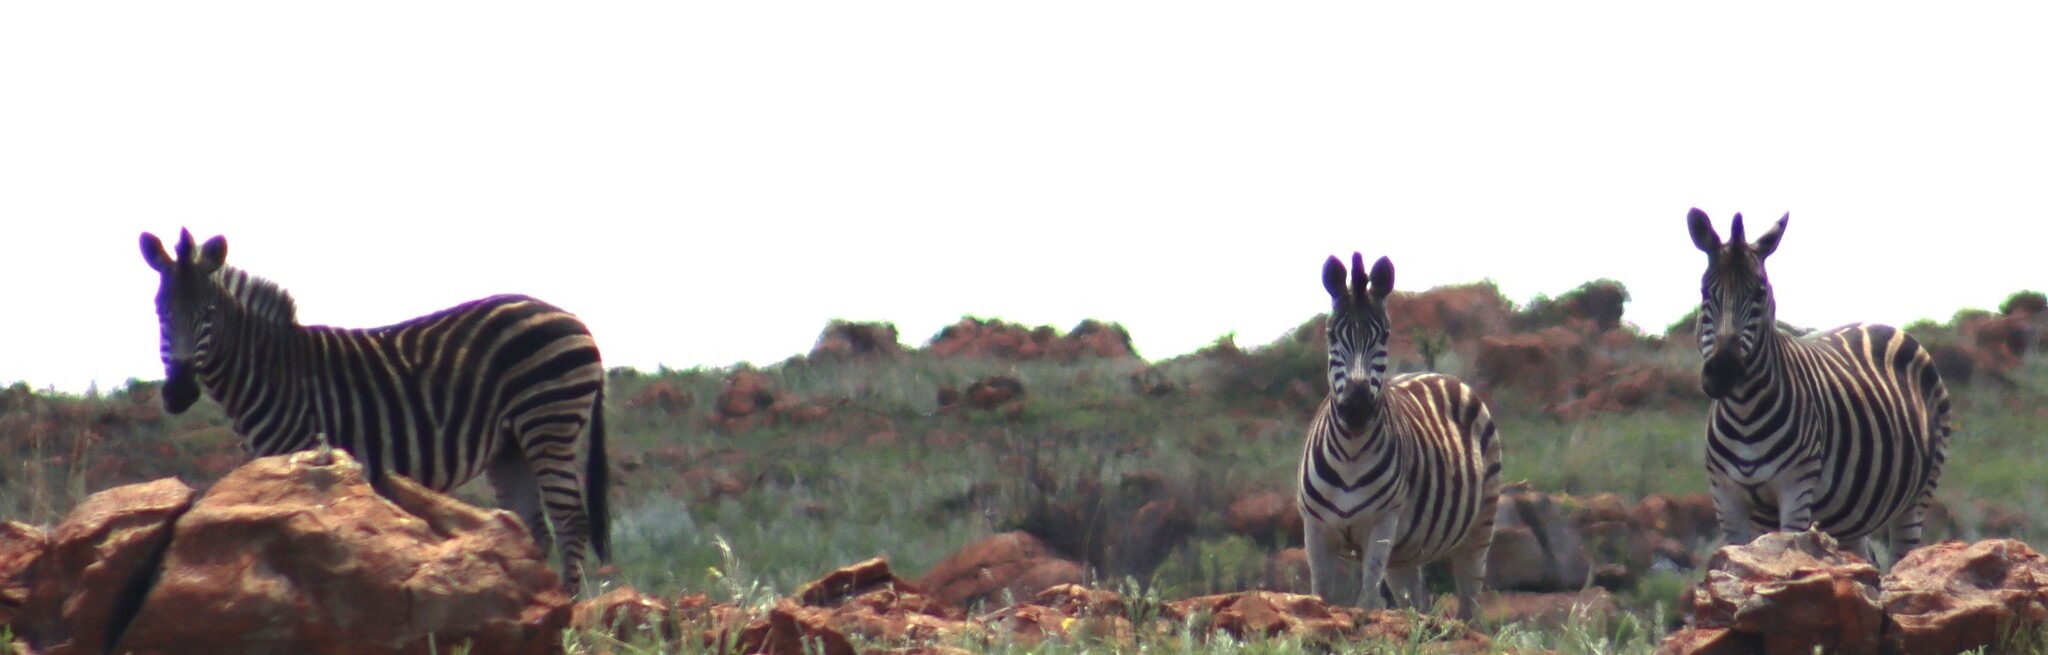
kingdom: Animalia
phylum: Chordata
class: Mammalia
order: Perissodactyla
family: Equidae
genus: Equus
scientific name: Equus quagga
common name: Plains zebra
